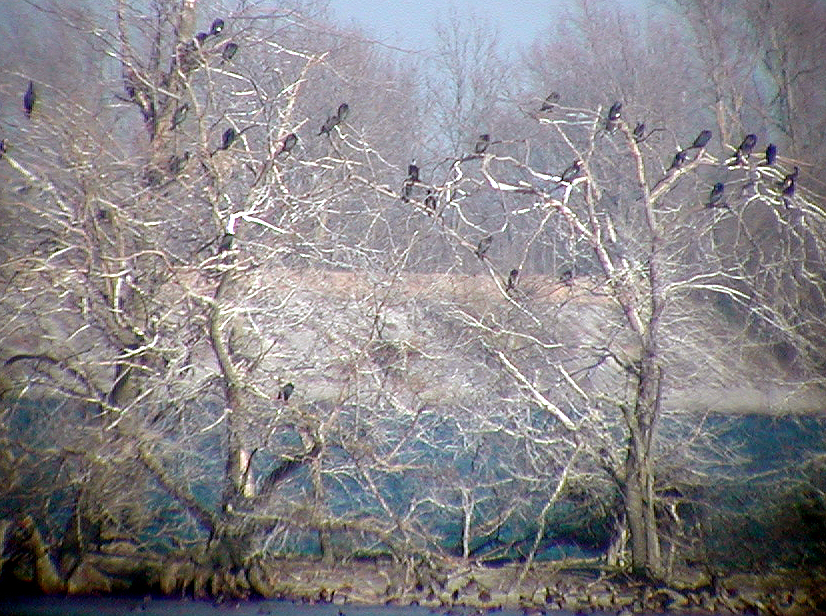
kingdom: Animalia
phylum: Chordata
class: Aves
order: Suliformes
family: Phalacrocoracidae
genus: Phalacrocorax
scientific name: Phalacrocorax carbo
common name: Great cormorant
